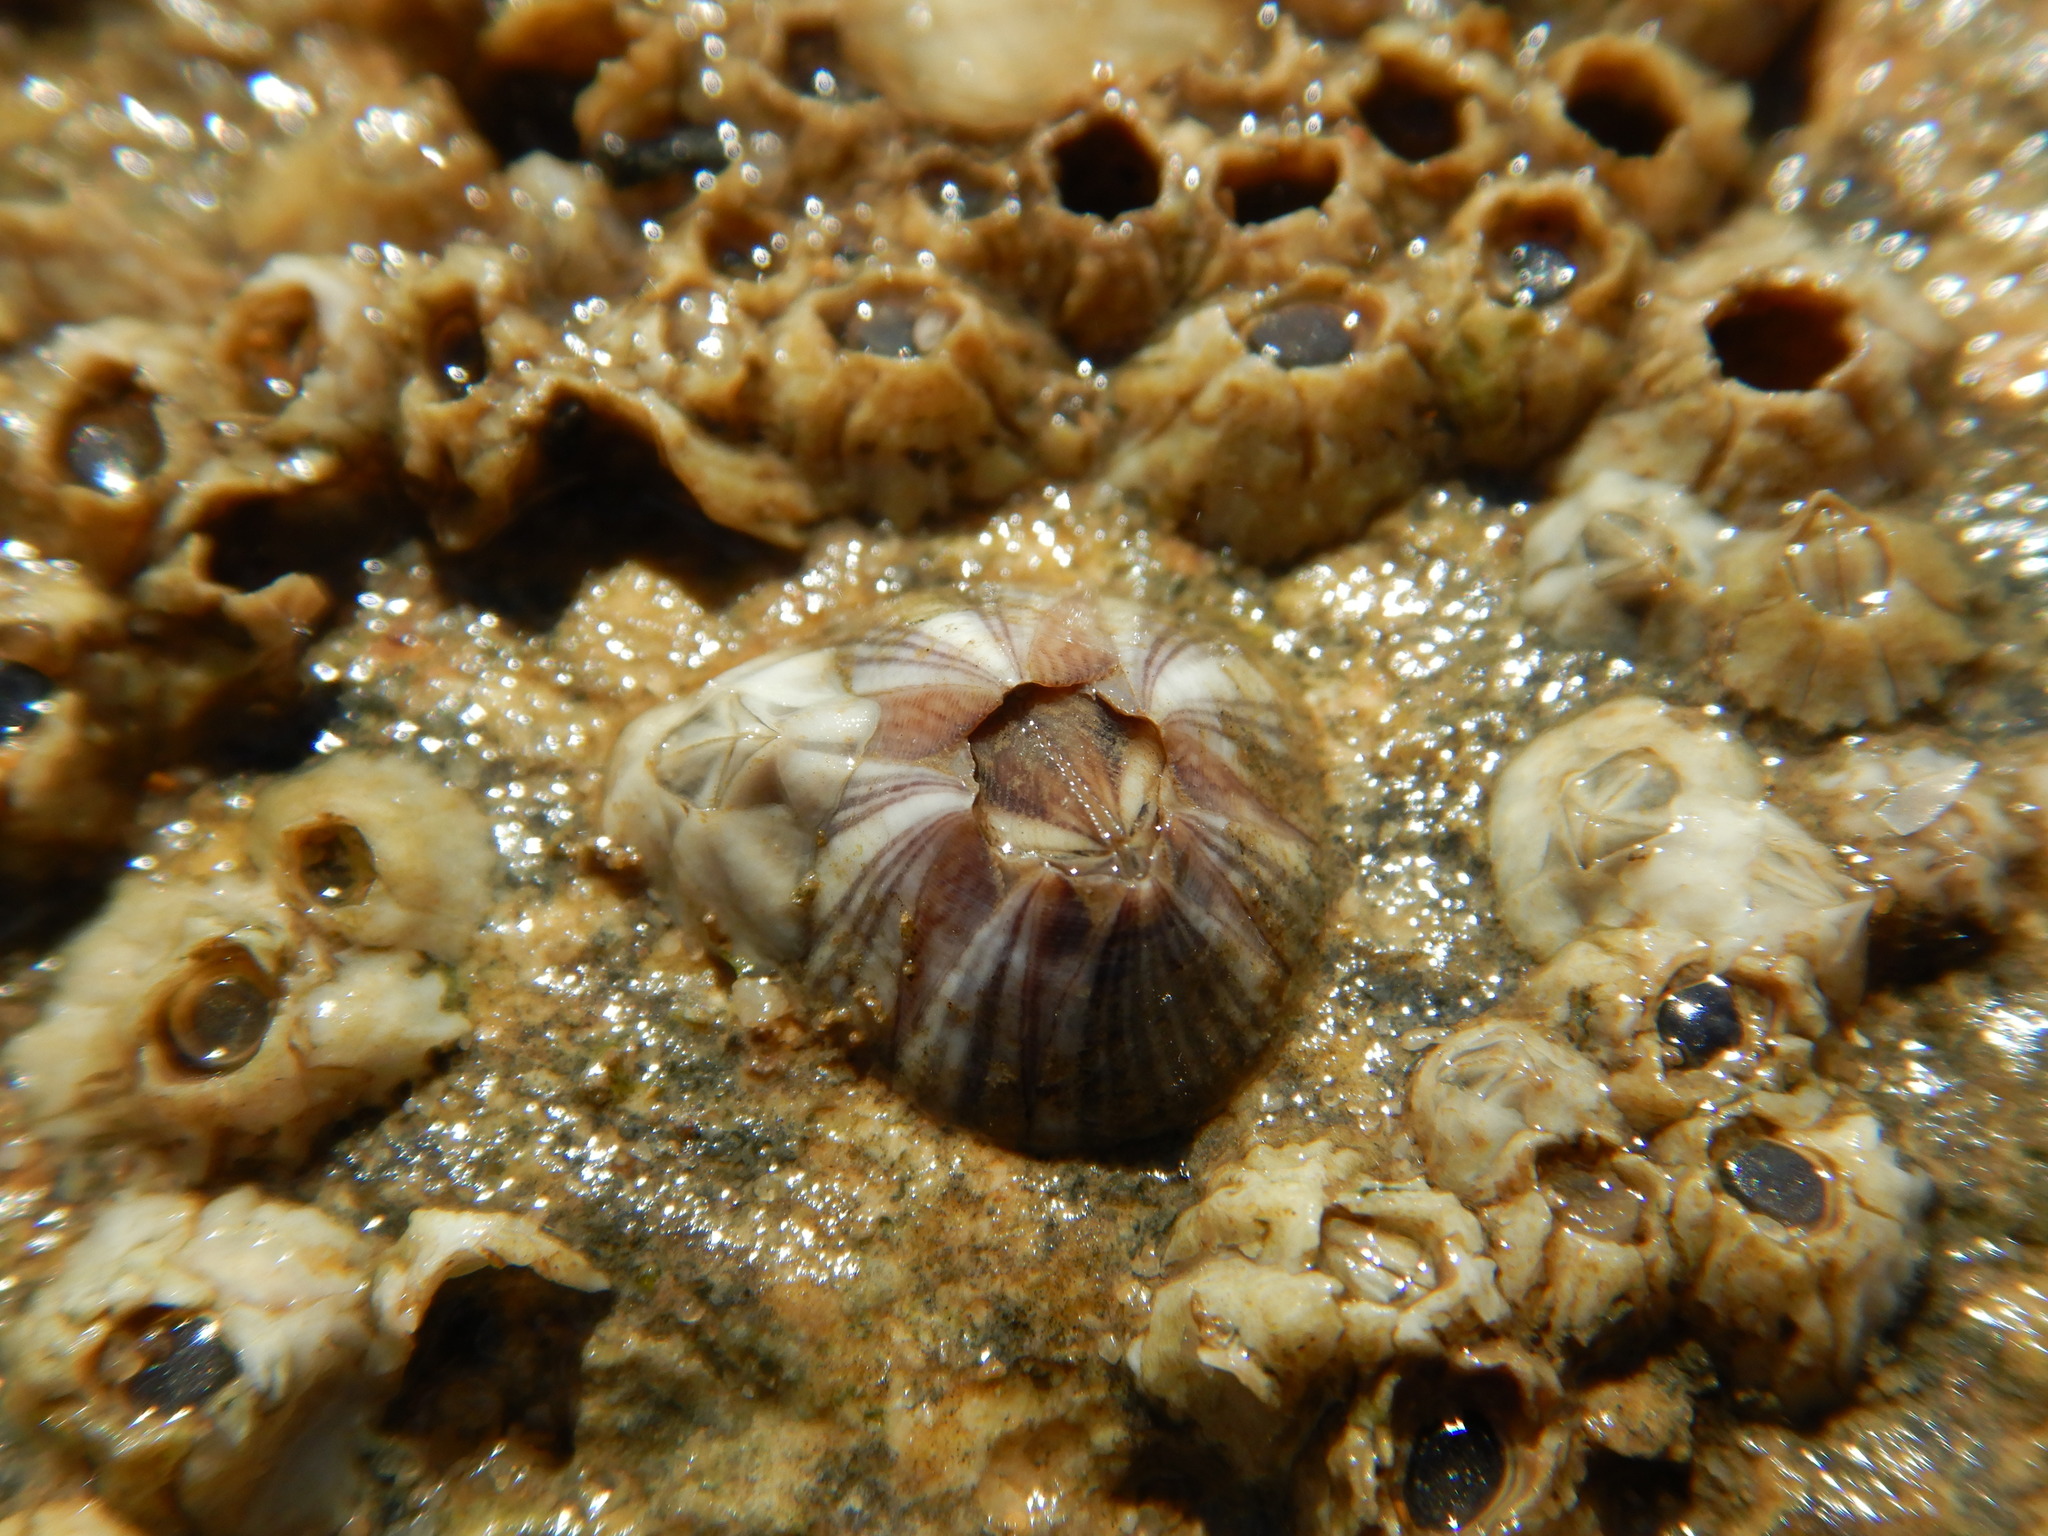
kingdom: Animalia
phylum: Arthropoda
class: Maxillopoda
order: Sessilia
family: Balanidae
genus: Amphibalanus
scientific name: Amphibalanus amphitrite
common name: Striped acorn barnacle
